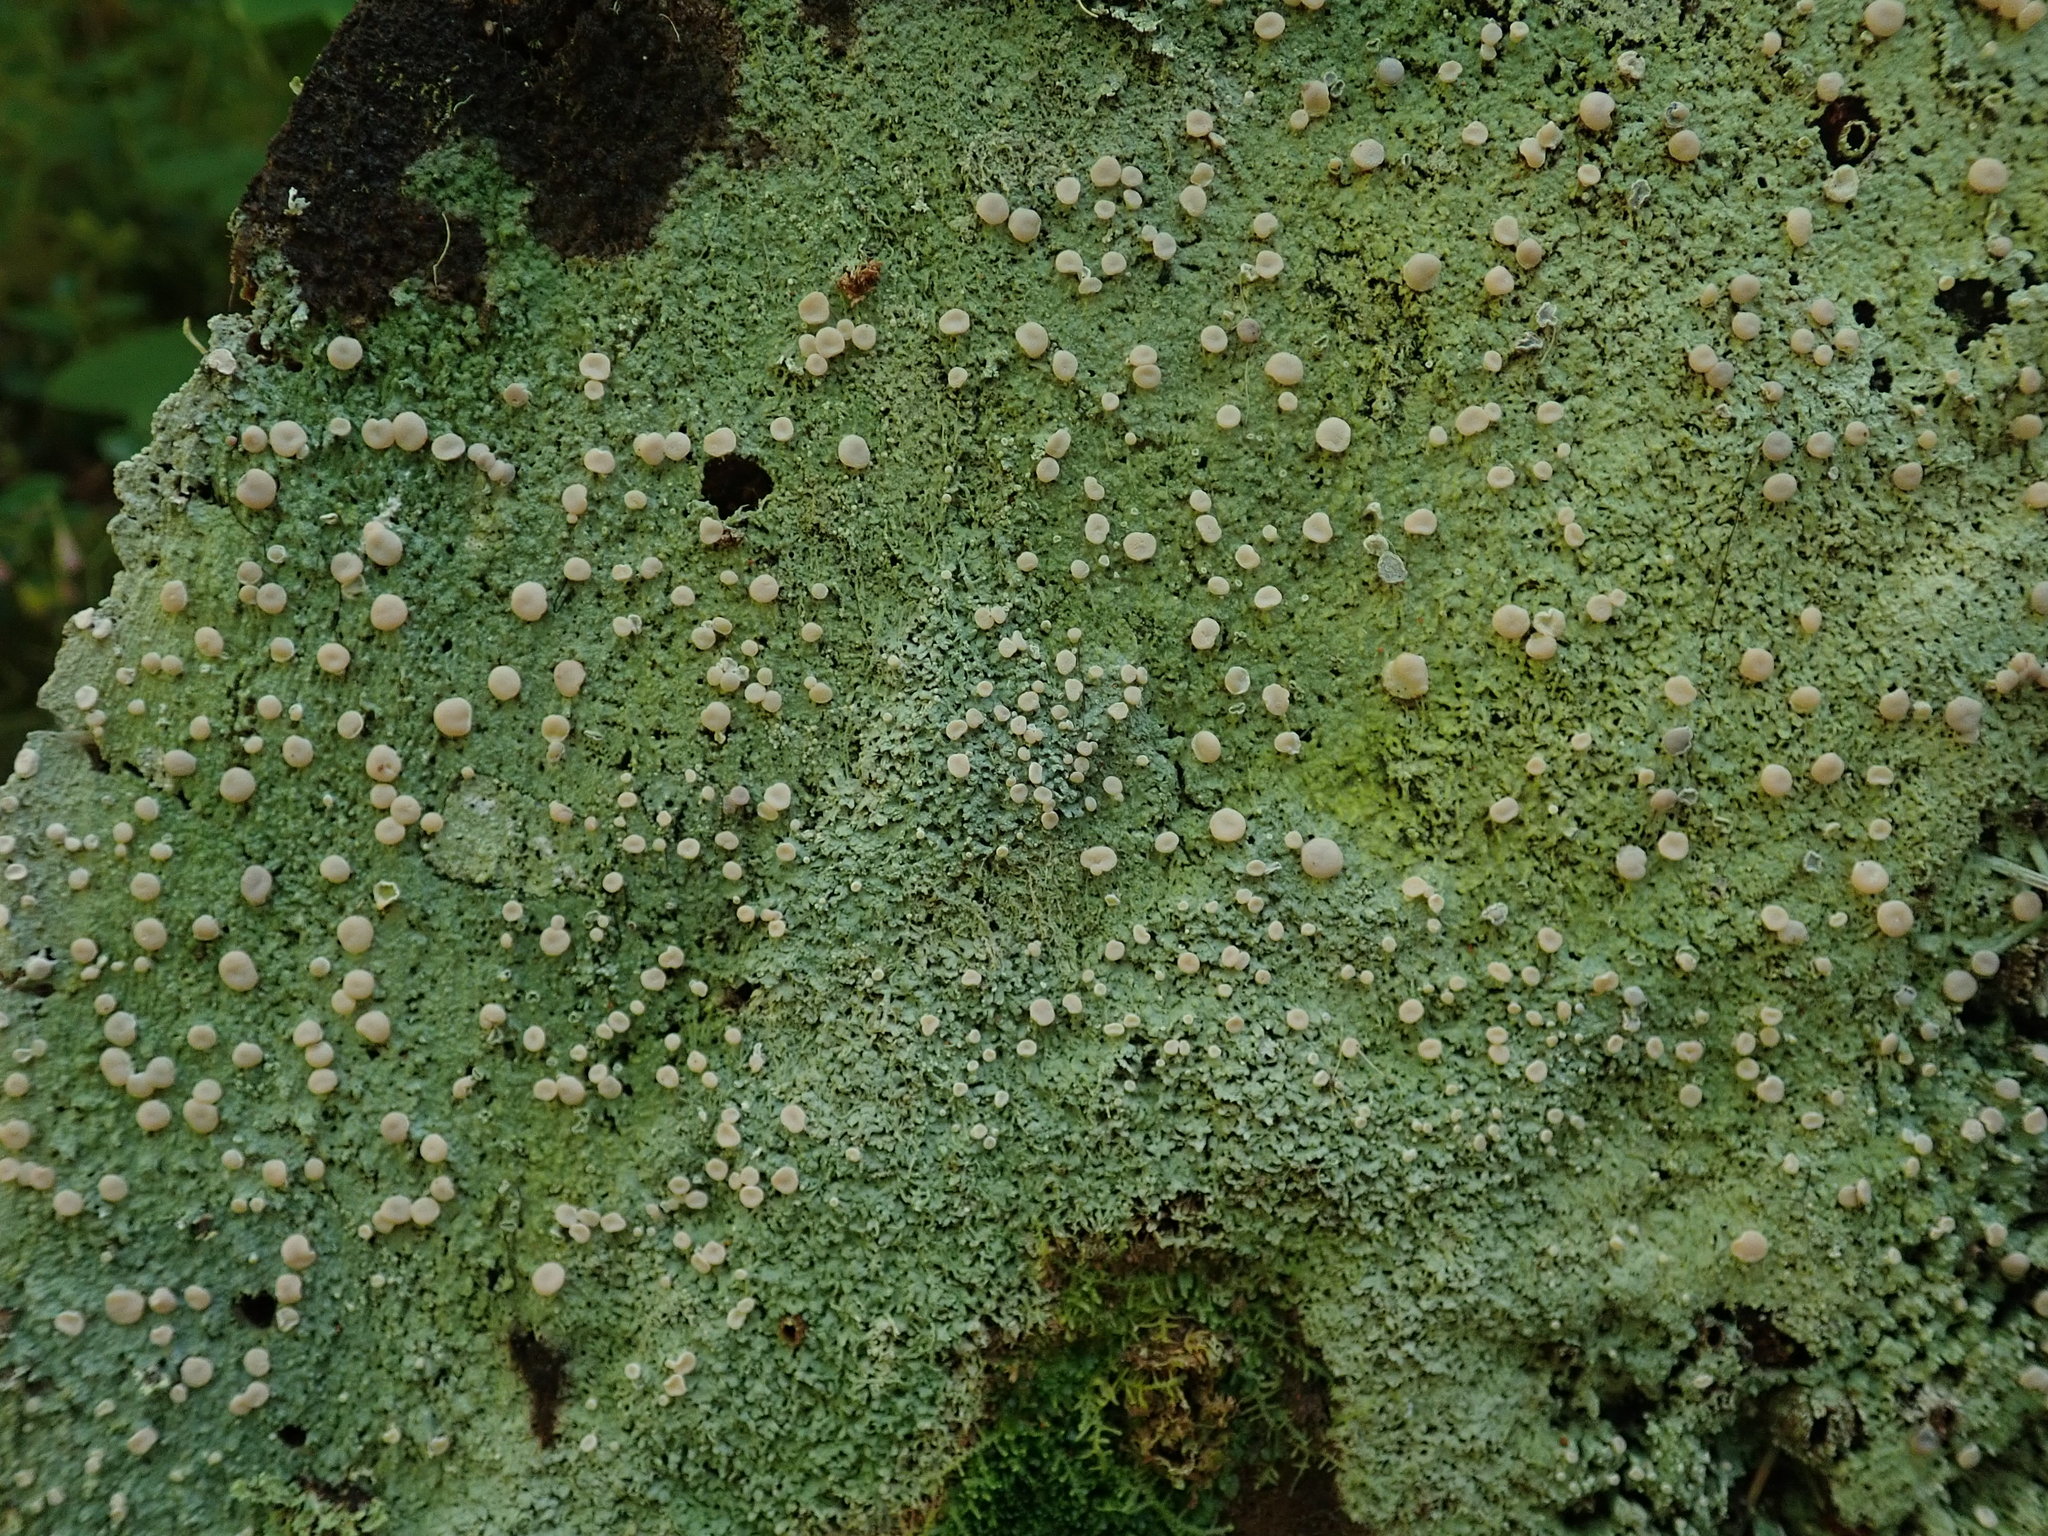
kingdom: Fungi
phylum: Ascomycota
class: Lecanoromycetes
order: Pertusariales
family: Icmadophilaceae
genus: Icmadophila
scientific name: Icmadophila ericetorum
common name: Candy lichen
